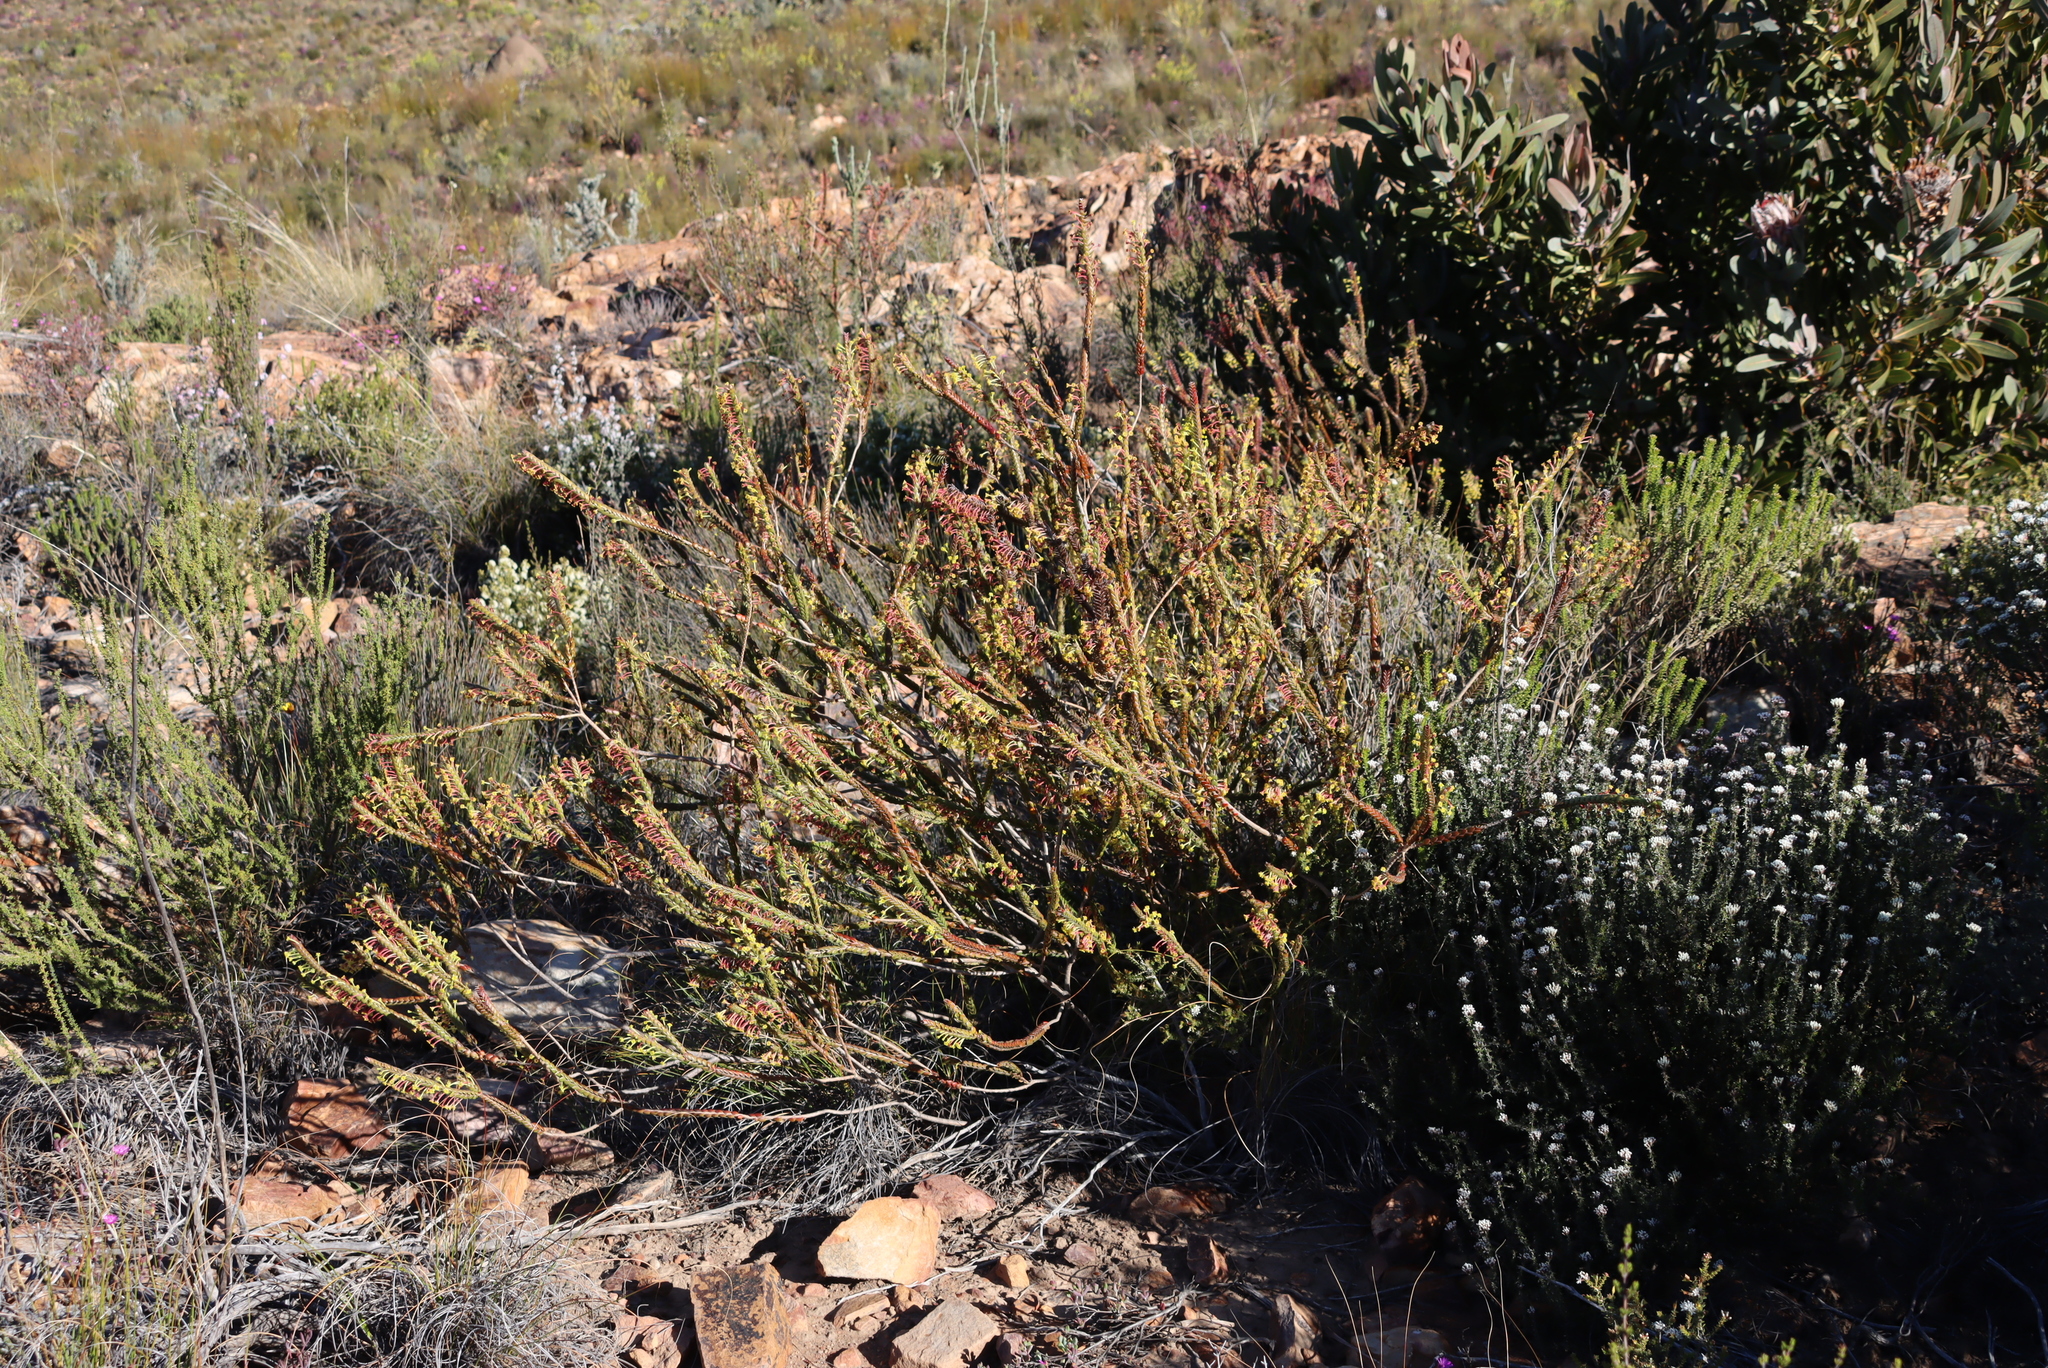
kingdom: Plantae
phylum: Tracheophyta
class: Magnoliopsida
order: Malvales
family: Thymelaeaceae
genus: Struthiola
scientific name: Struthiola argentea
